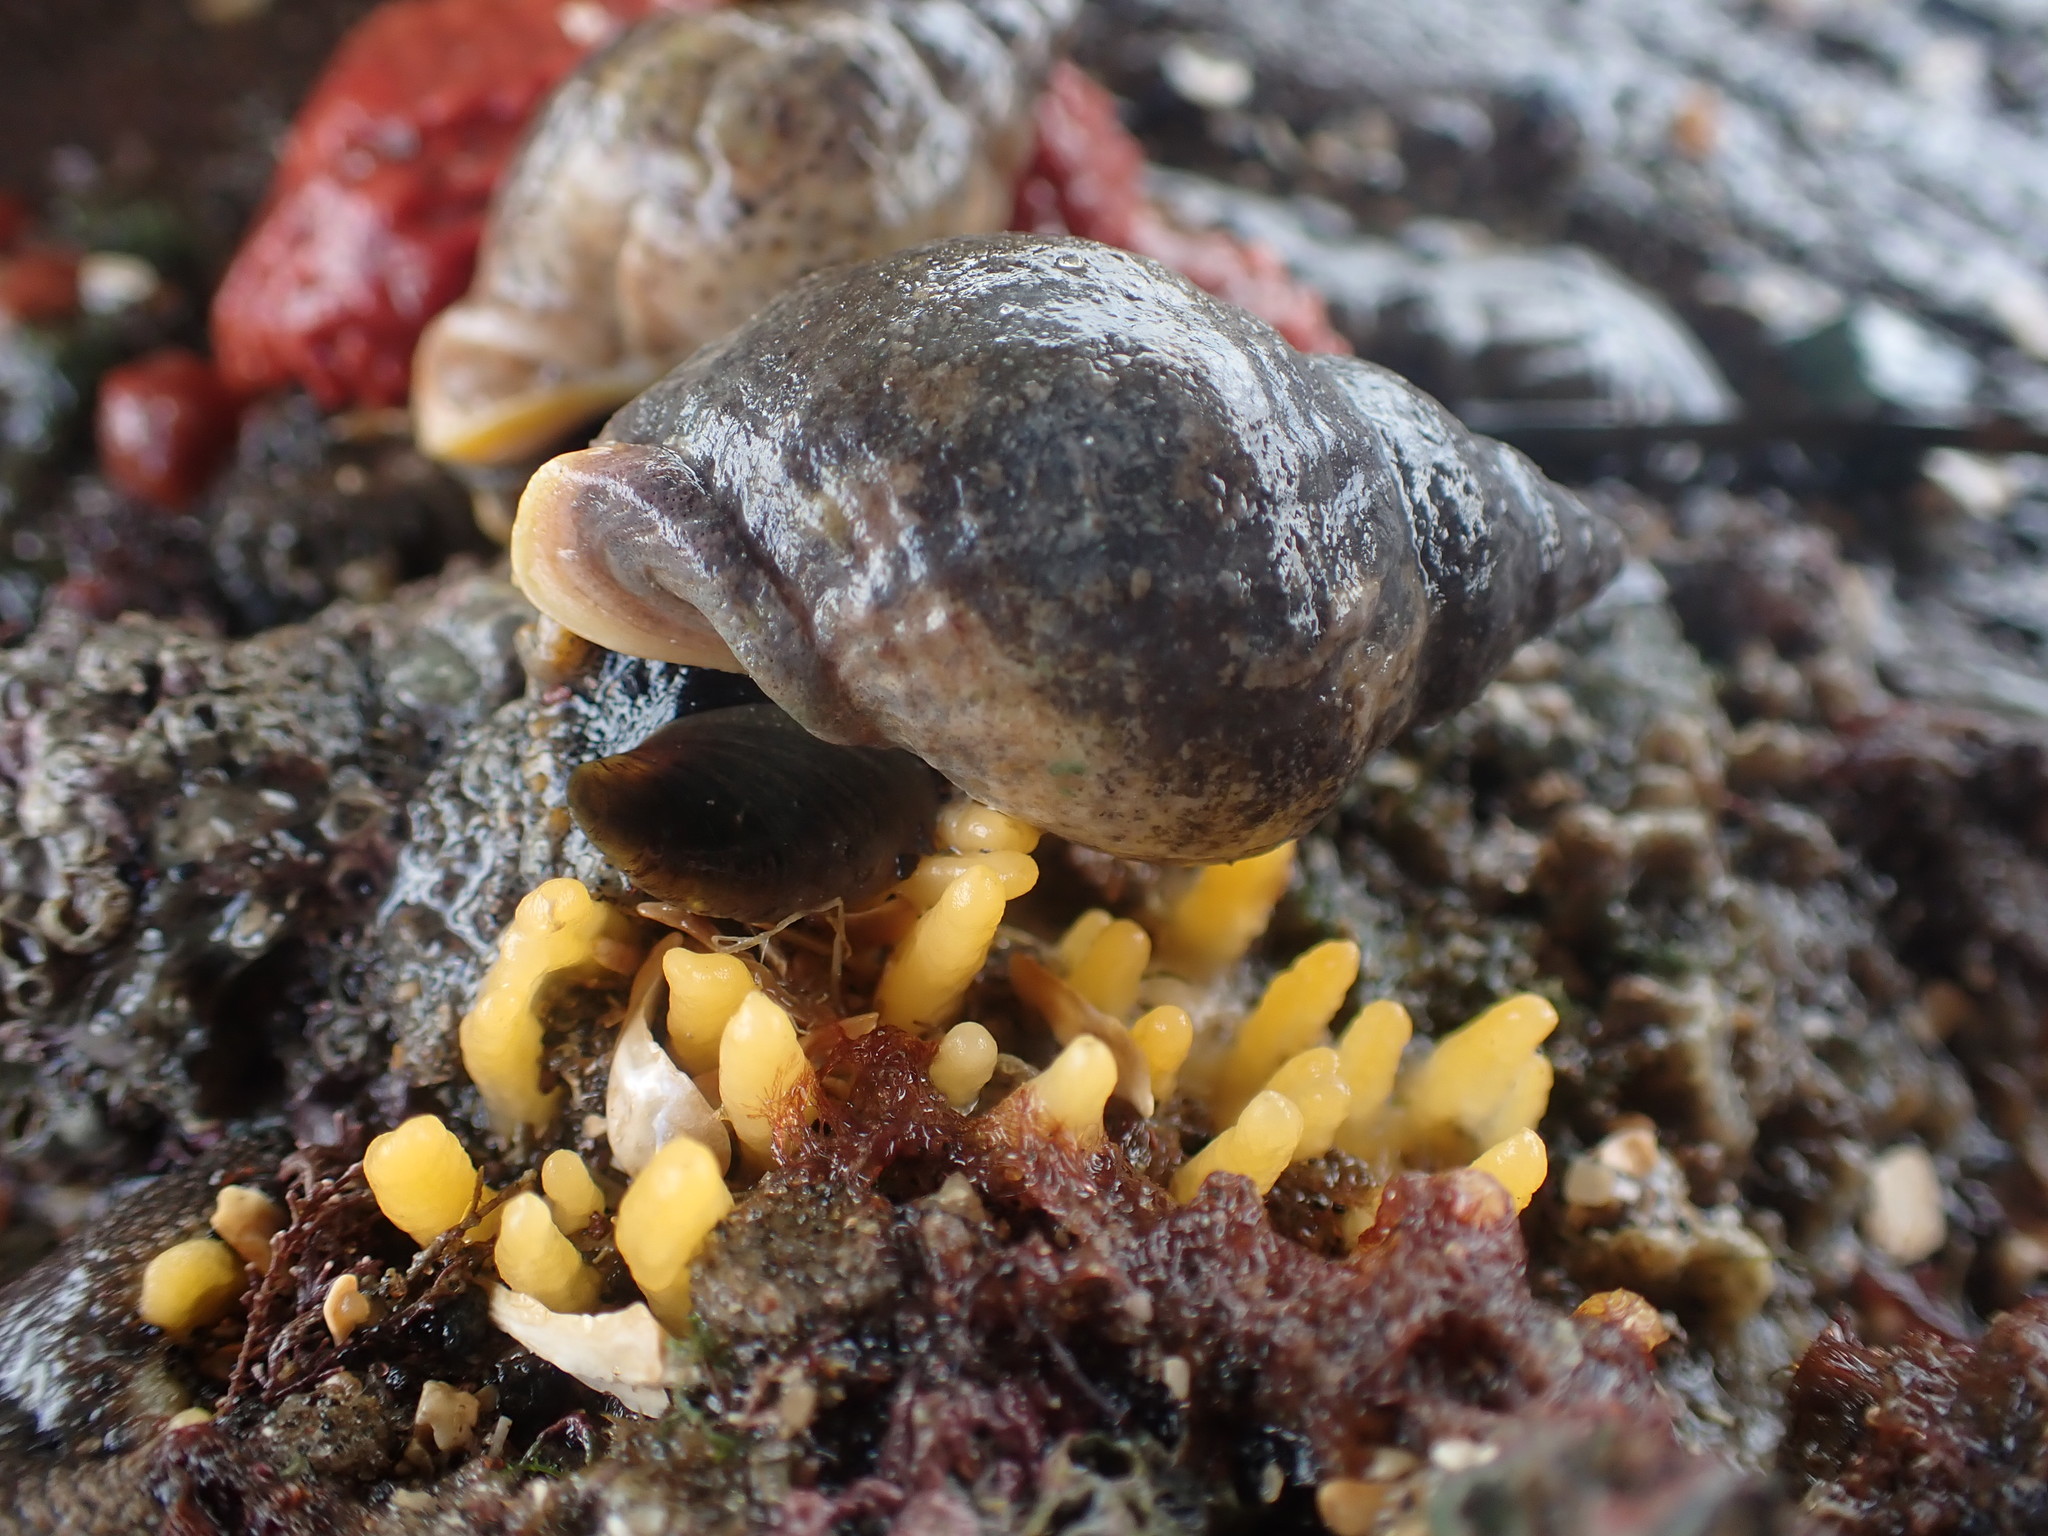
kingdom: Animalia
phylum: Mollusca
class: Gastropoda
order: Neogastropoda
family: Cominellidae
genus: Cominella
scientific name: Cominella adspersa
